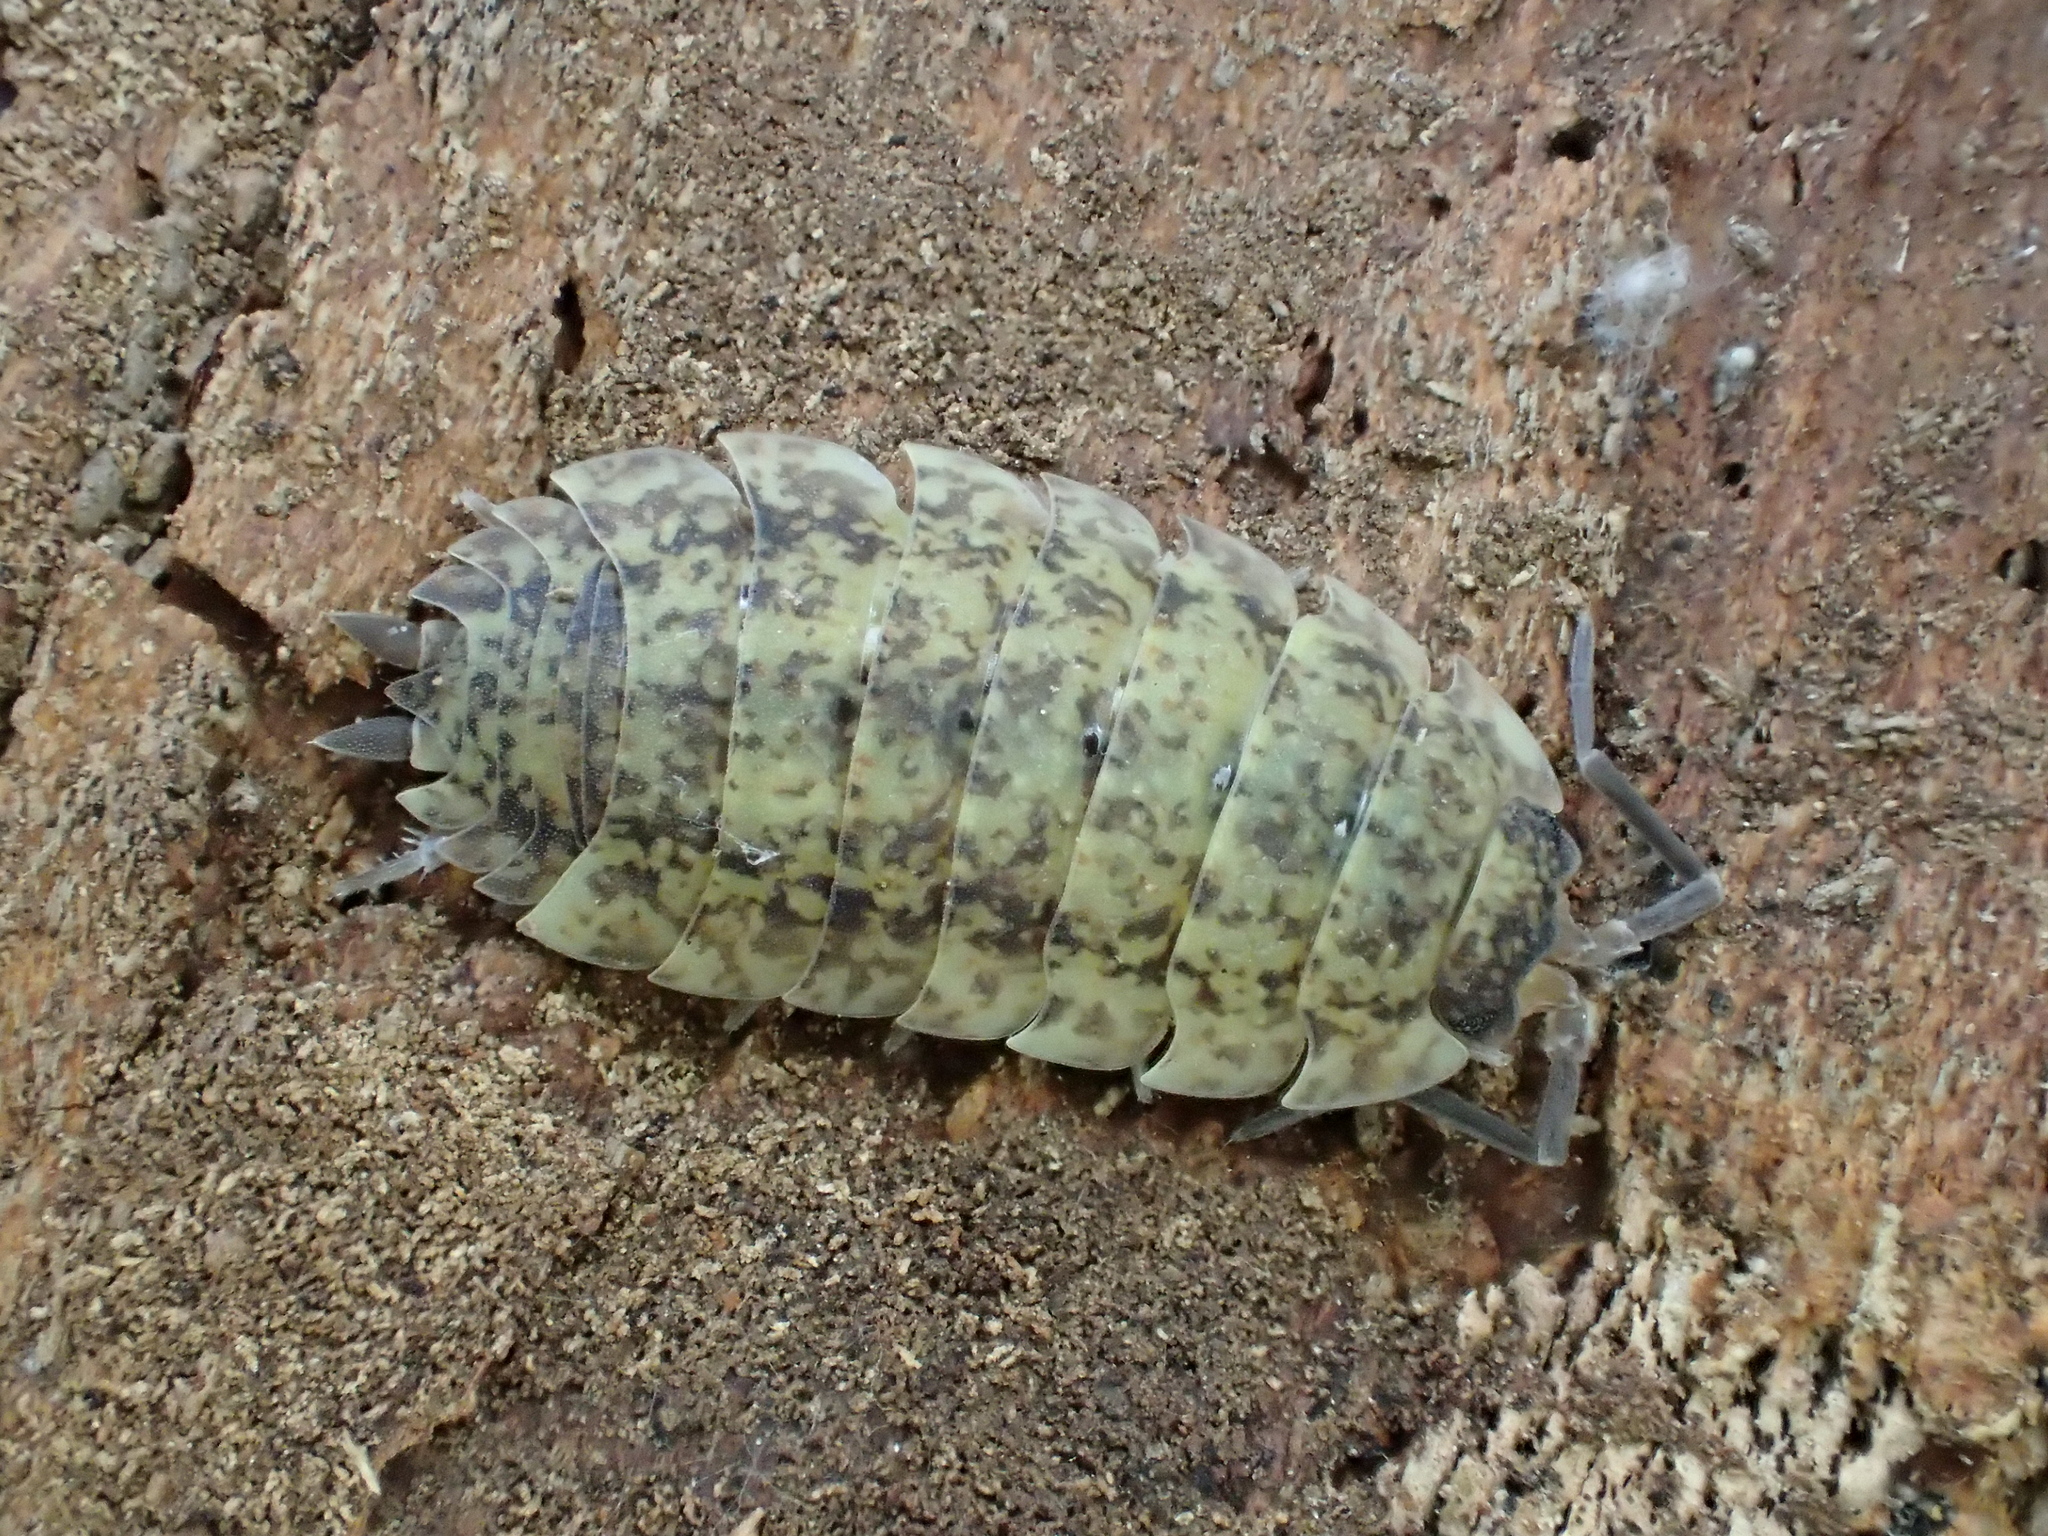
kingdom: Animalia
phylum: Arthropoda
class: Malacostraca
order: Isopoda
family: Porcellionidae
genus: Porcellio
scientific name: Porcellio scaber
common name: Common rough woodlouse
